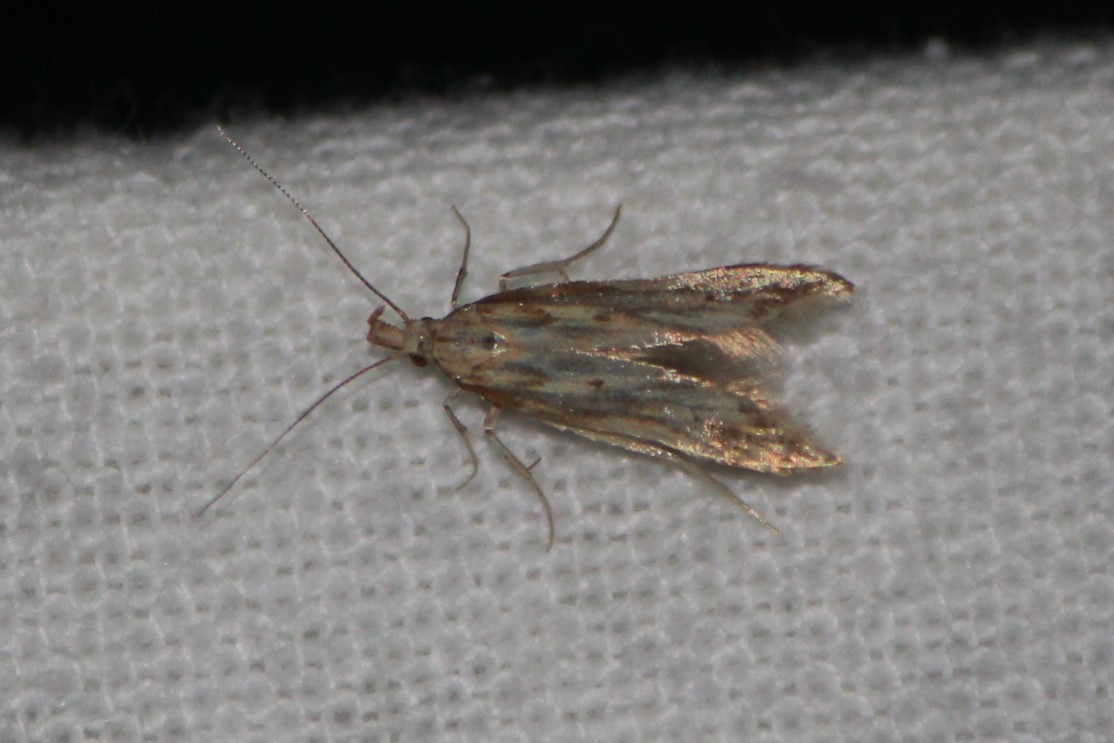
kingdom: Animalia
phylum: Arthropoda
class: Insecta
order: Lepidoptera
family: Gelechiidae
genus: Metzneria
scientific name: Metzneria lappella
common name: Burdock neb
